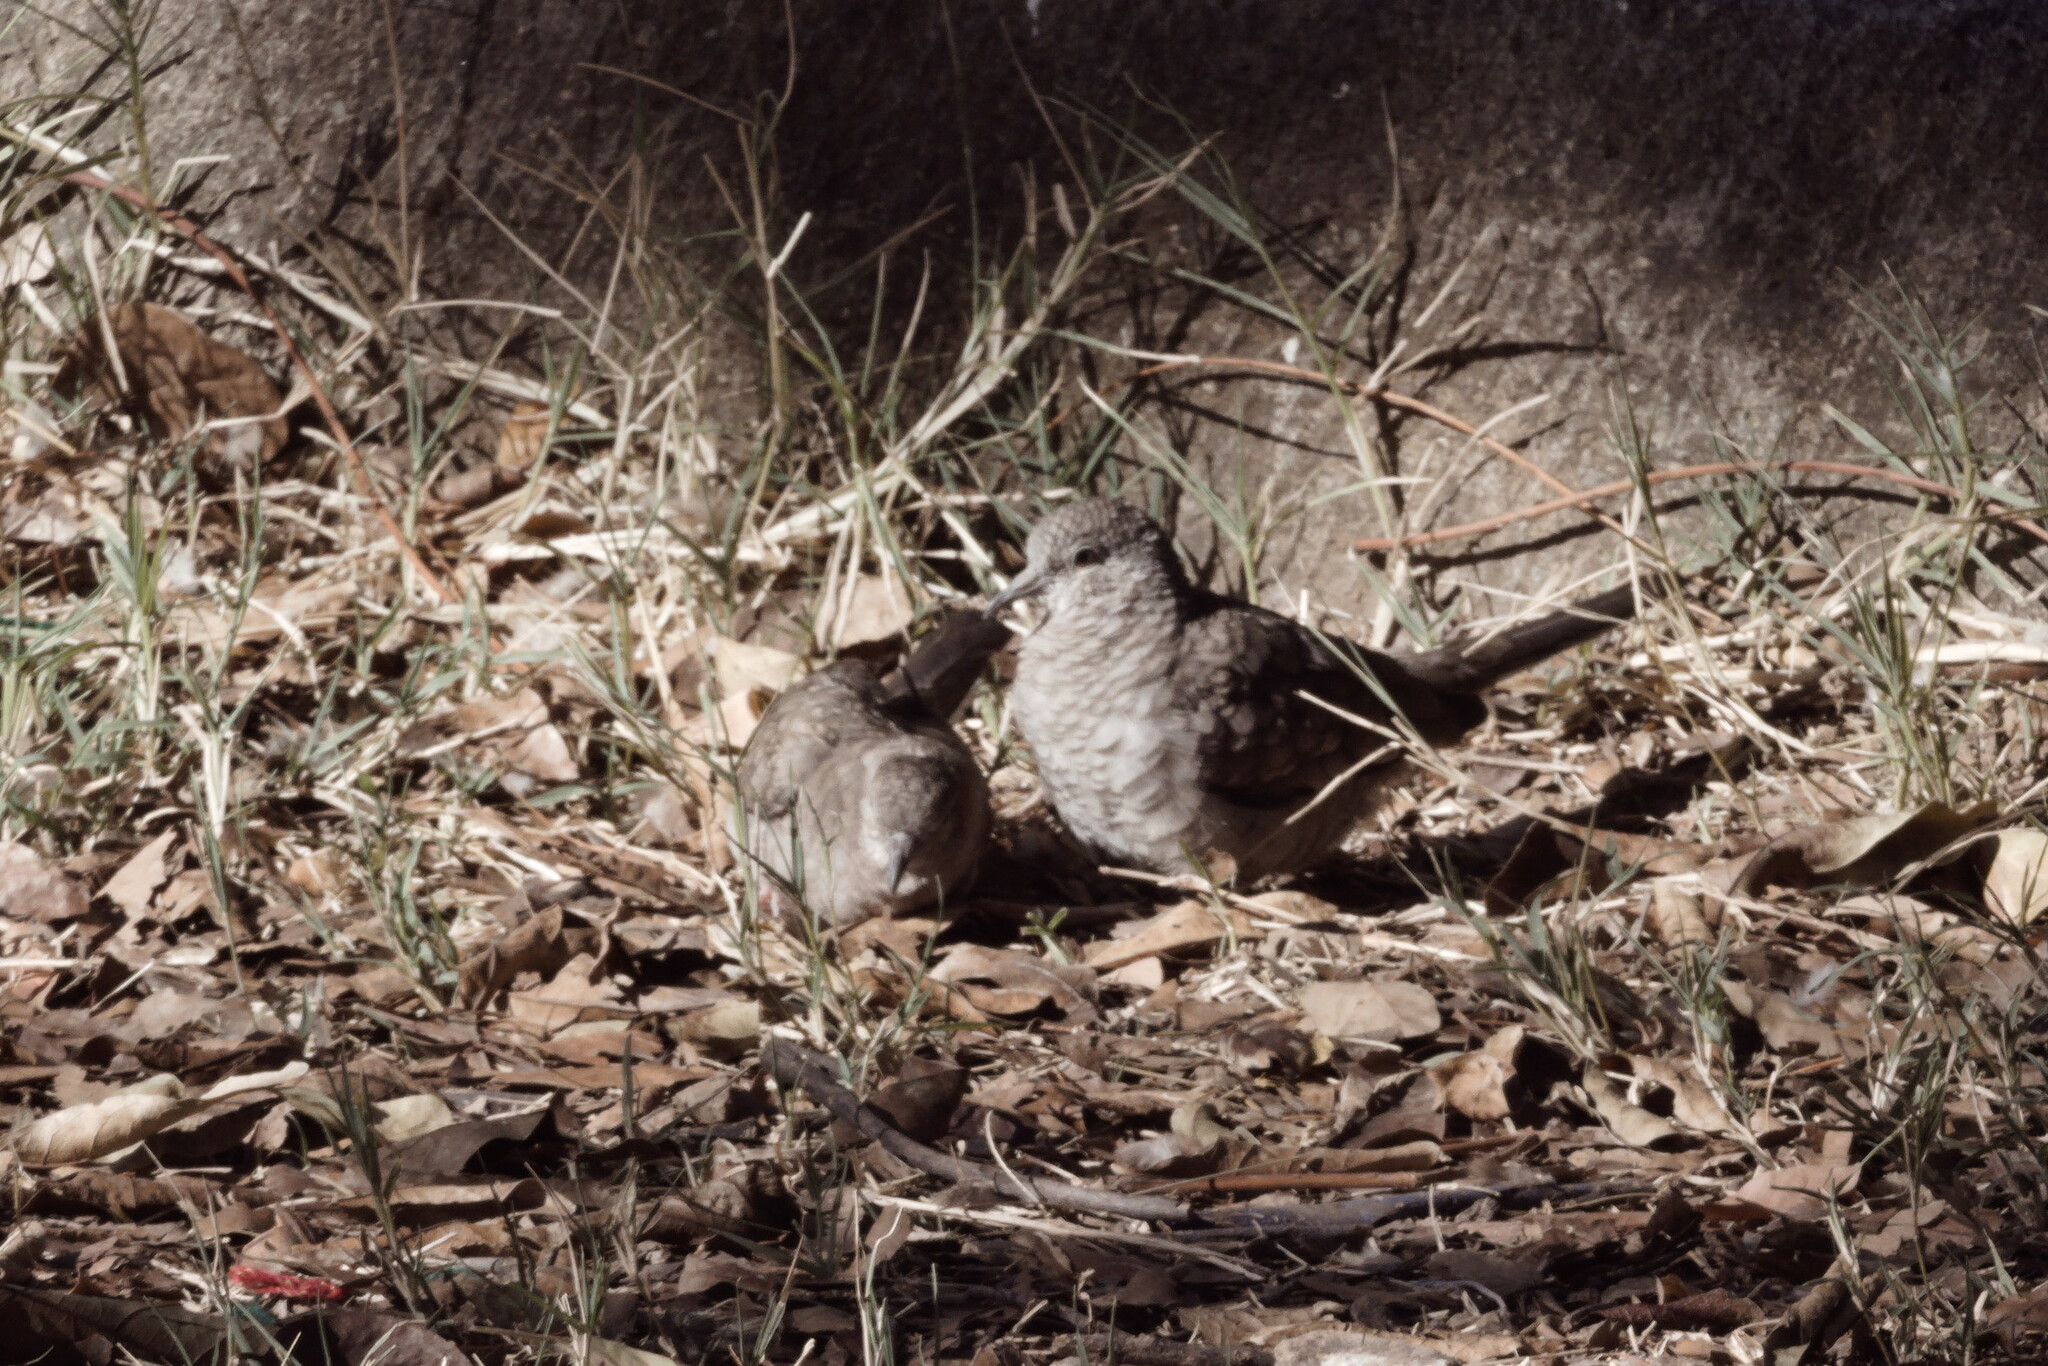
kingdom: Animalia
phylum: Chordata
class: Aves
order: Columbiformes
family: Columbidae
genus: Columbina
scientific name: Columbina inca
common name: Inca dove
